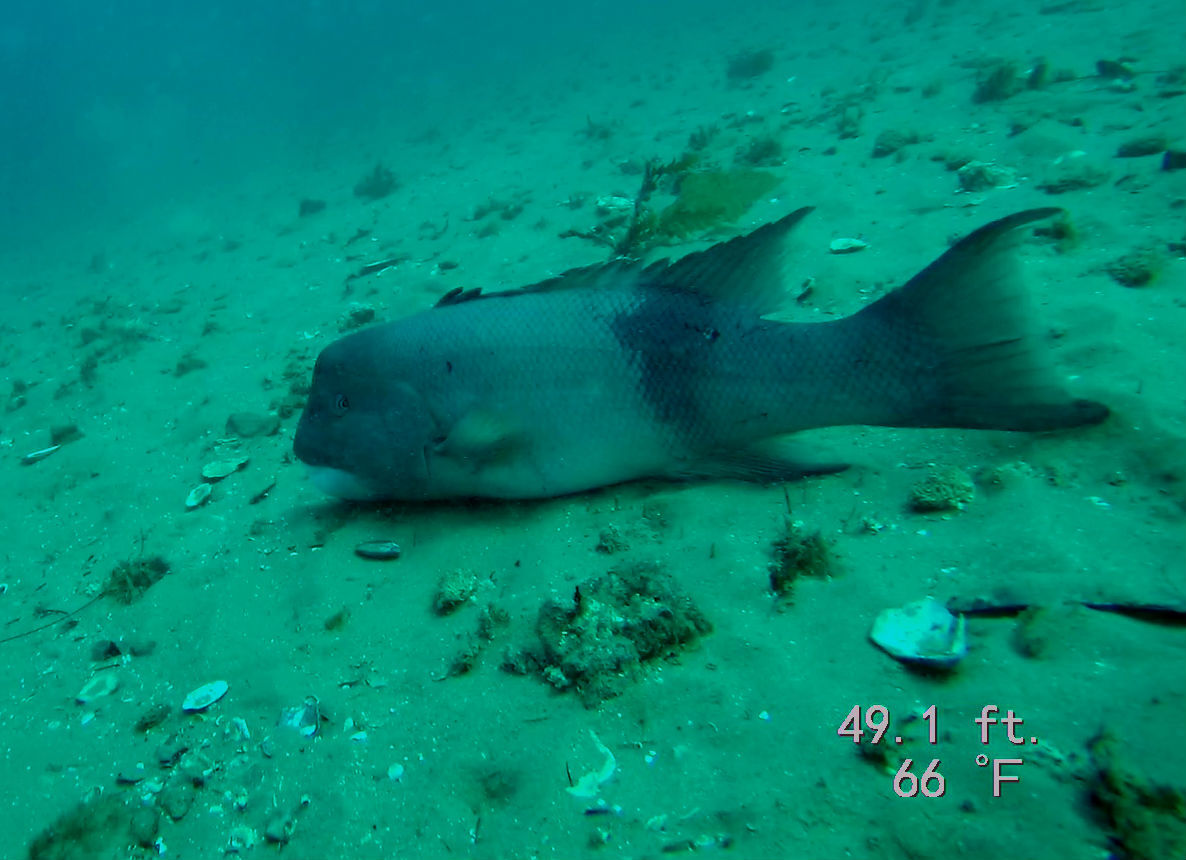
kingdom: Animalia
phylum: Chordata
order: Perciformes
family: Labridae
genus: Semicossyphus
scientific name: Semicossyphus pulcher
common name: California sheephead
